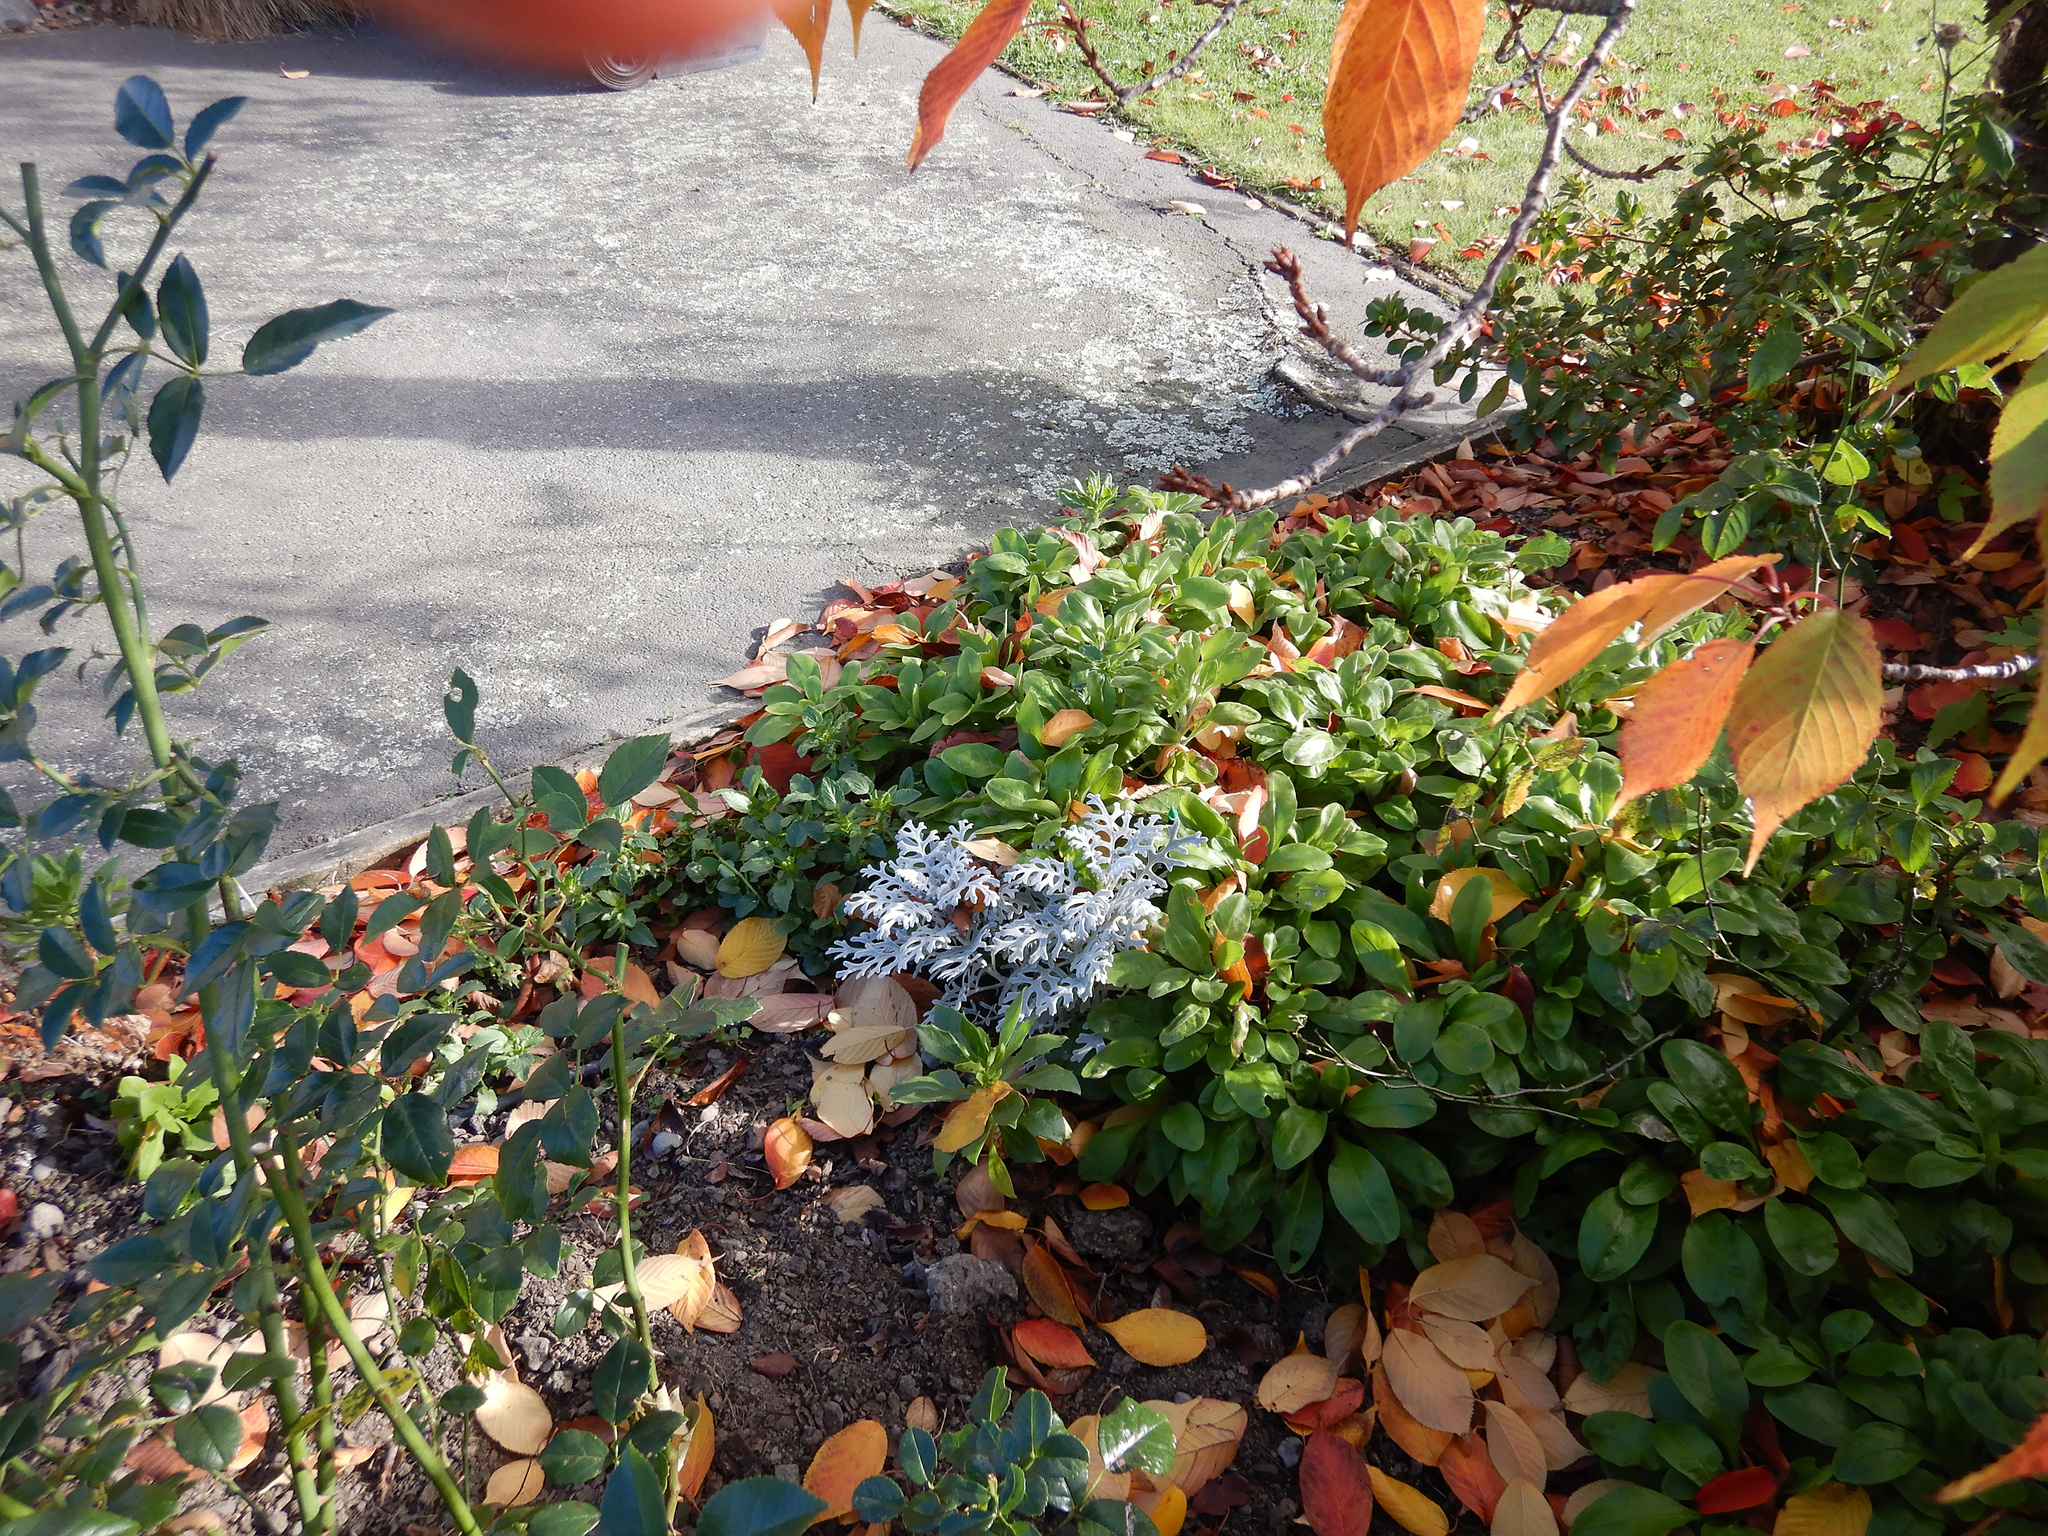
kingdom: Plantae
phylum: Tracheophyta
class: Magnoliopsida
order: Asterales
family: Asteraceae
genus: Jacobaea
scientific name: Jacobaea maritima
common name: Silver ragwort
